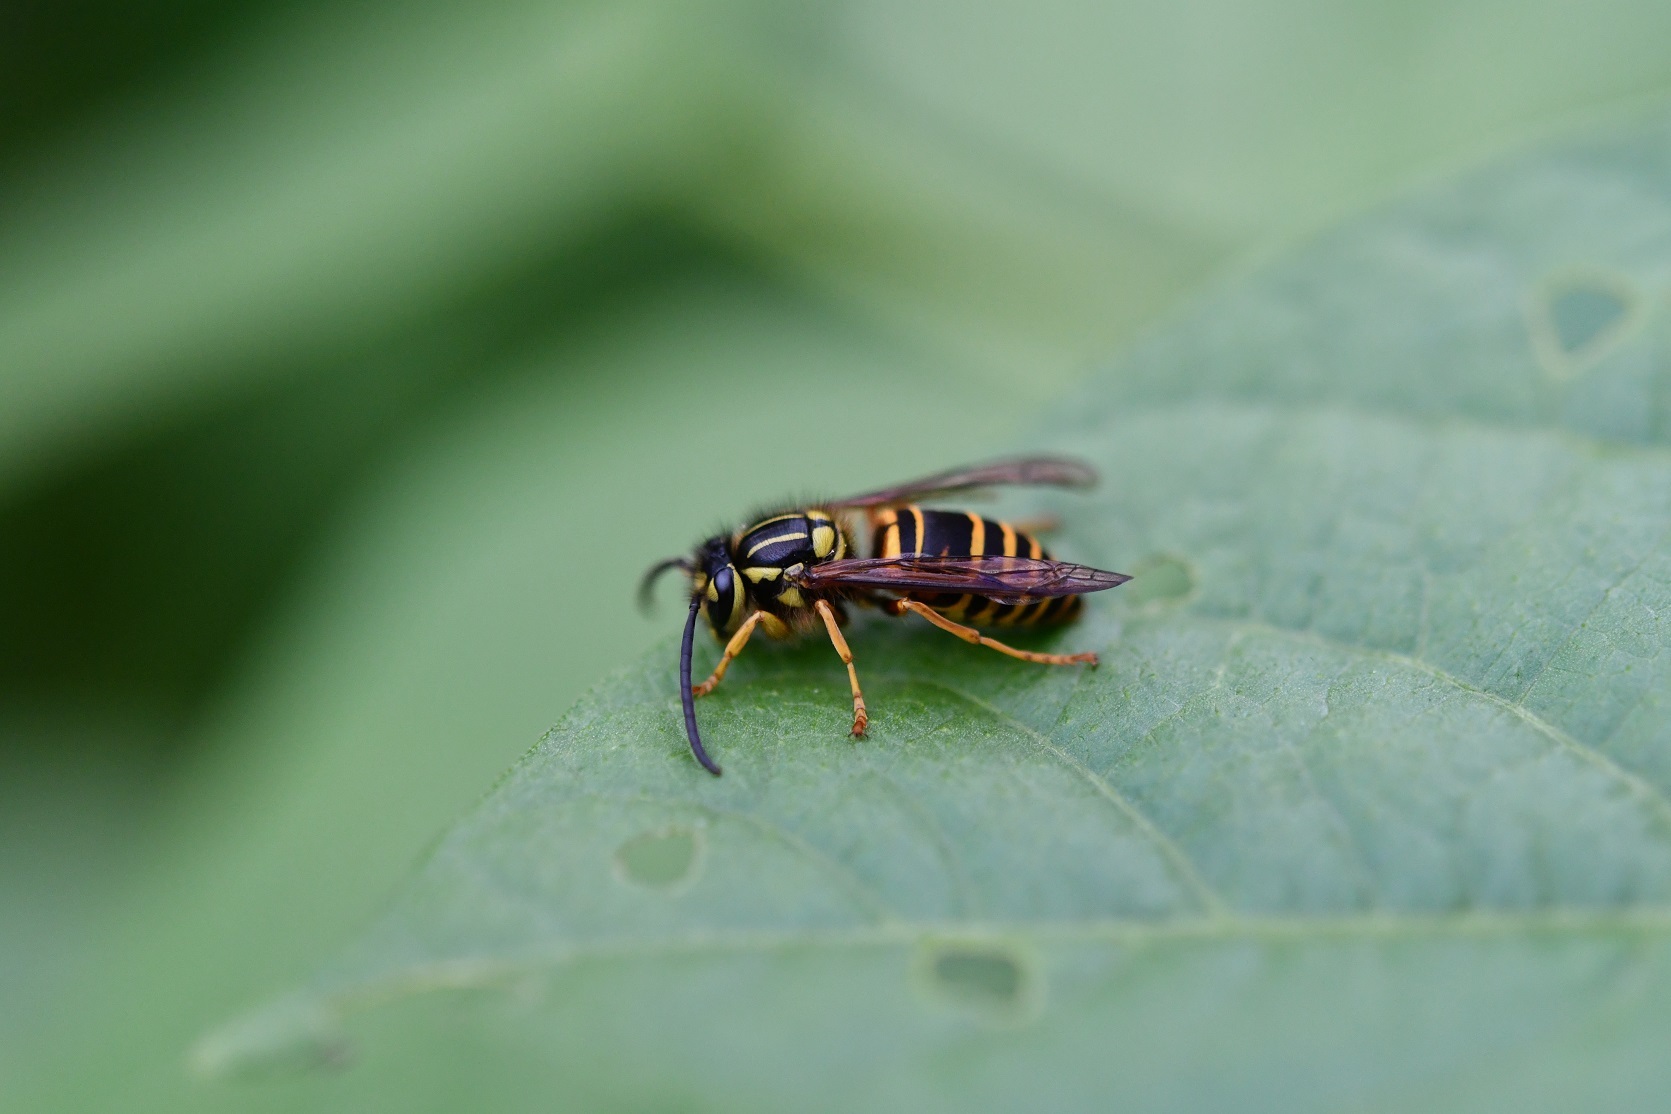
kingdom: Animalia
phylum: Arthropoda
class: Insecta
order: Hymenoptera
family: Vespidae
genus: Vespula
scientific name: Vespula squamosa
